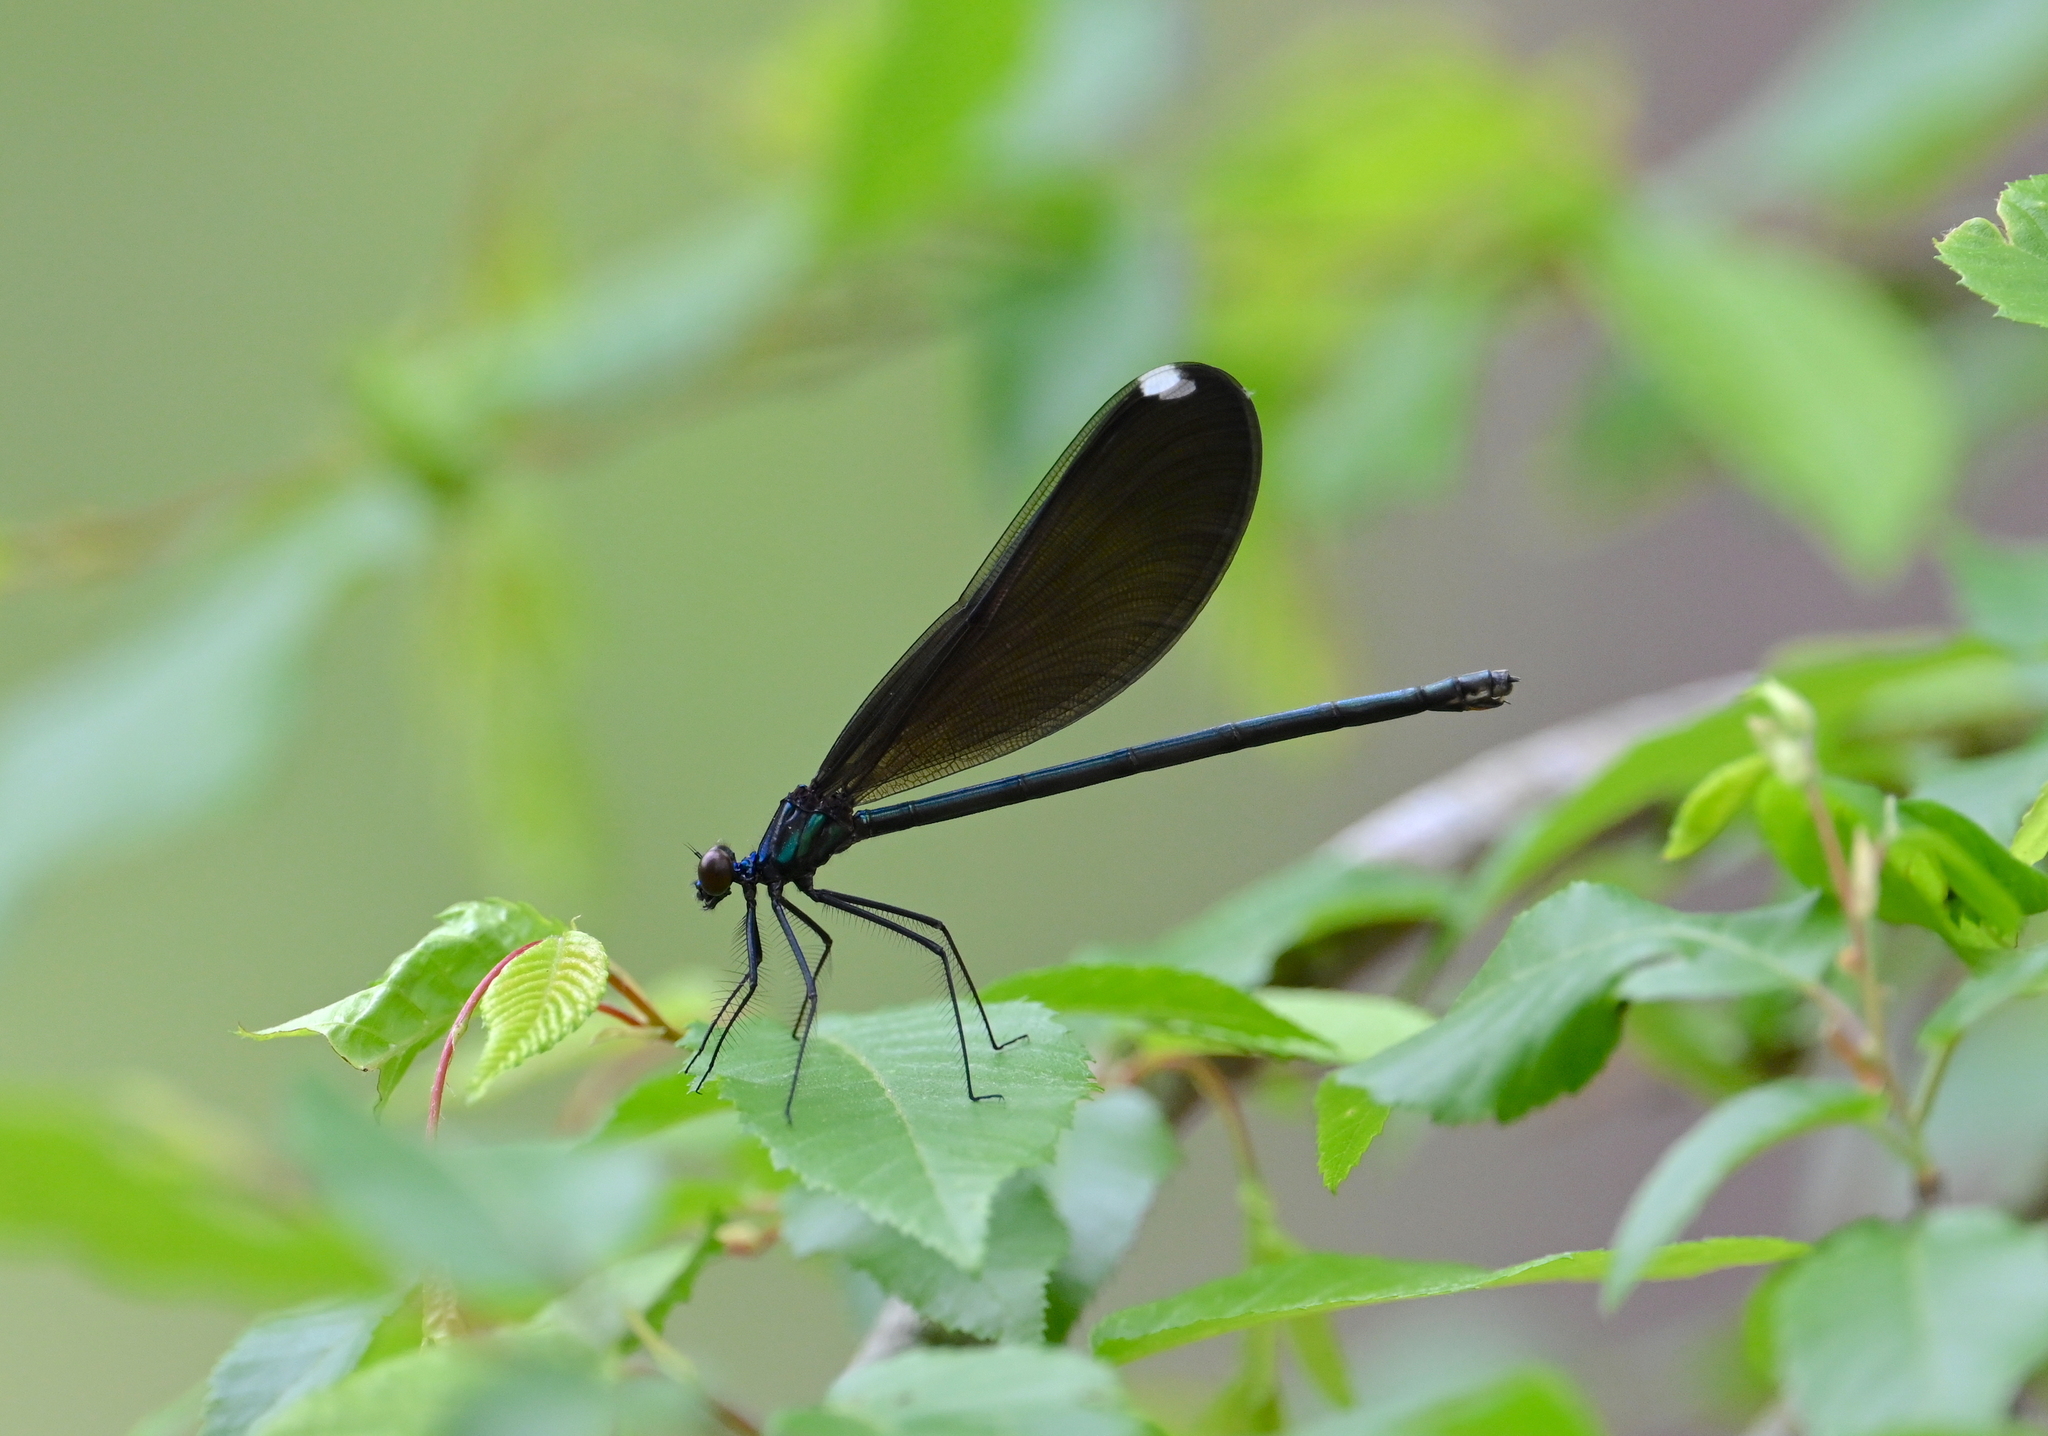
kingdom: Animalia
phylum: Arthropoda
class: Insecta
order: Odonata
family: Calopterygidae
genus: Calopteryx
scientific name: Calopteryx maculata
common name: Ebony jewelwing
